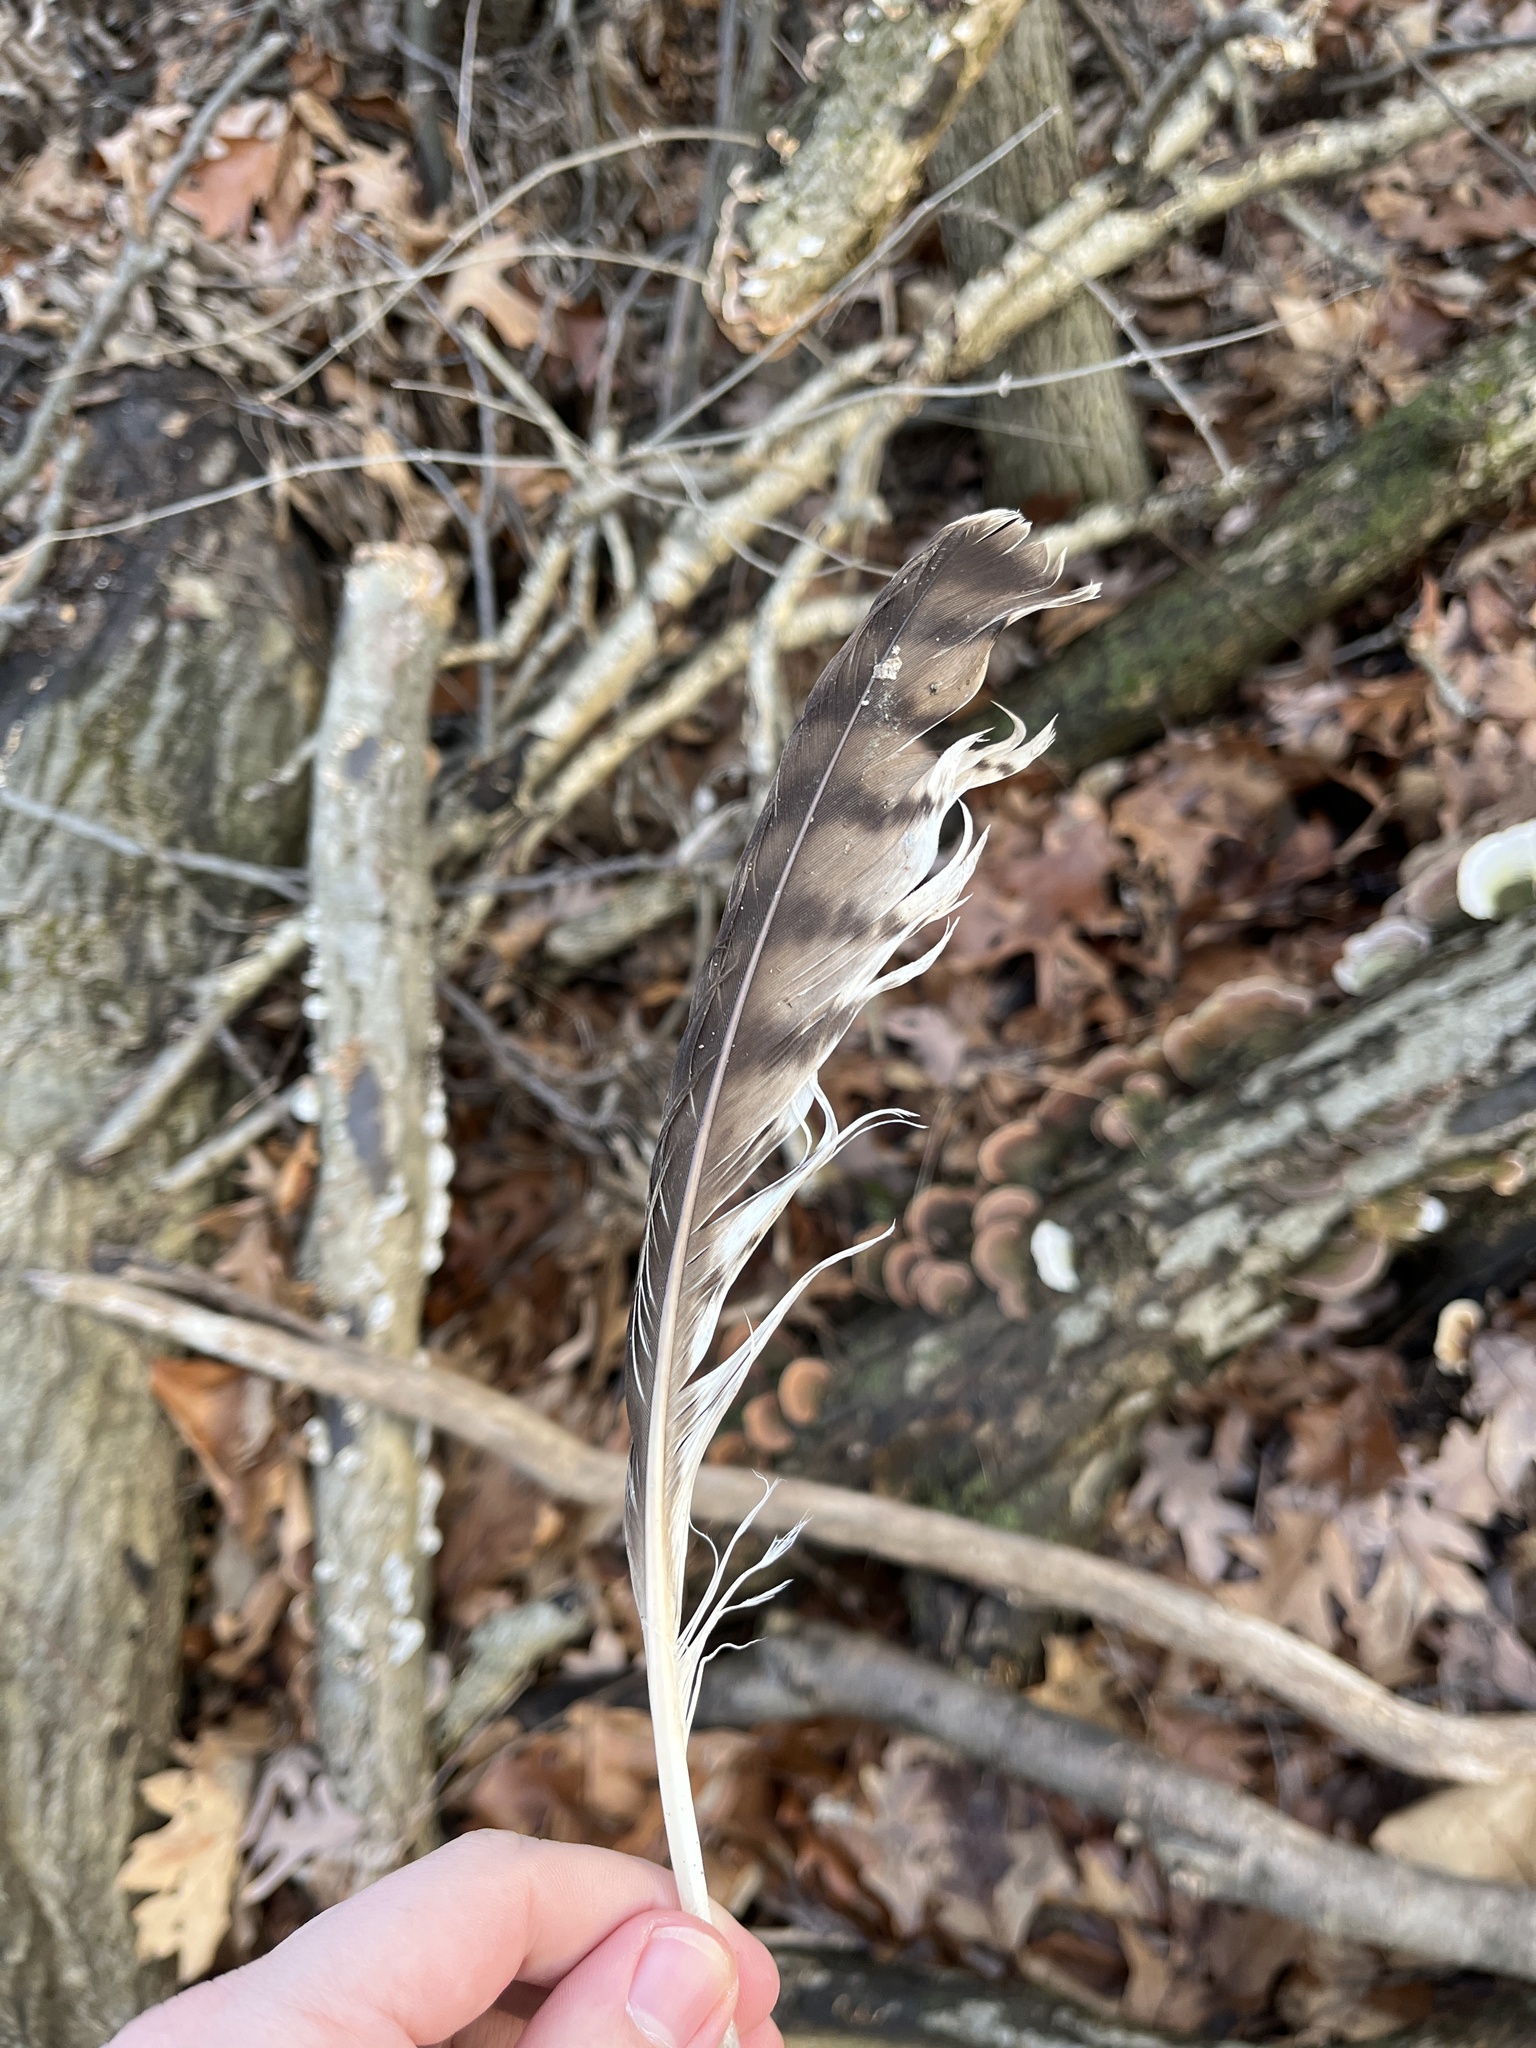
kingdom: Animalia
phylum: Chordata
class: Aves
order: Accipitriformes
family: Accipitridae
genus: Buteo
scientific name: Buteo jamaicensis
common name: Red-tailed hawk
